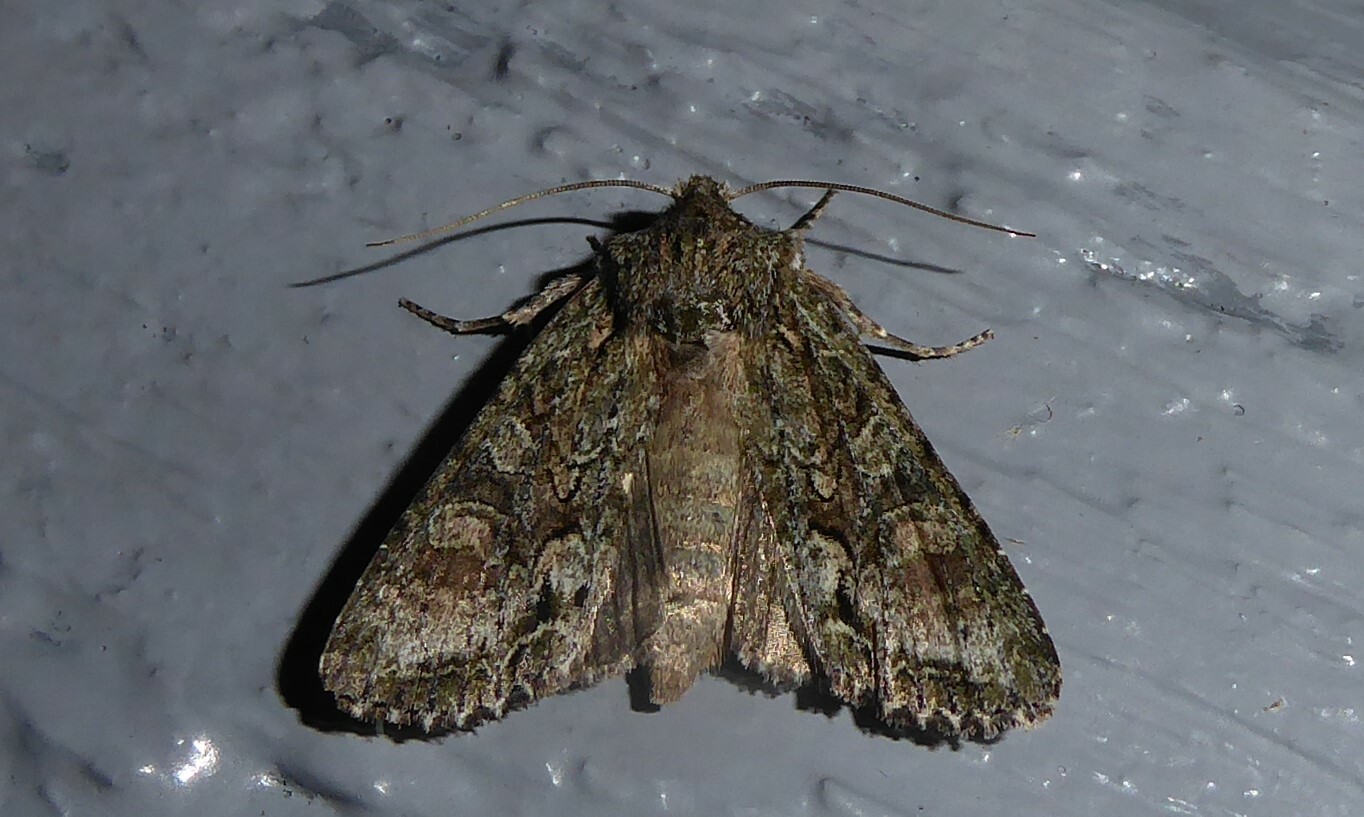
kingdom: Animalia
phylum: Arthropoda
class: Insecta
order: Lepidoptera
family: Noctuidae
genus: Ichneutica
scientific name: Ichneutica mutans
